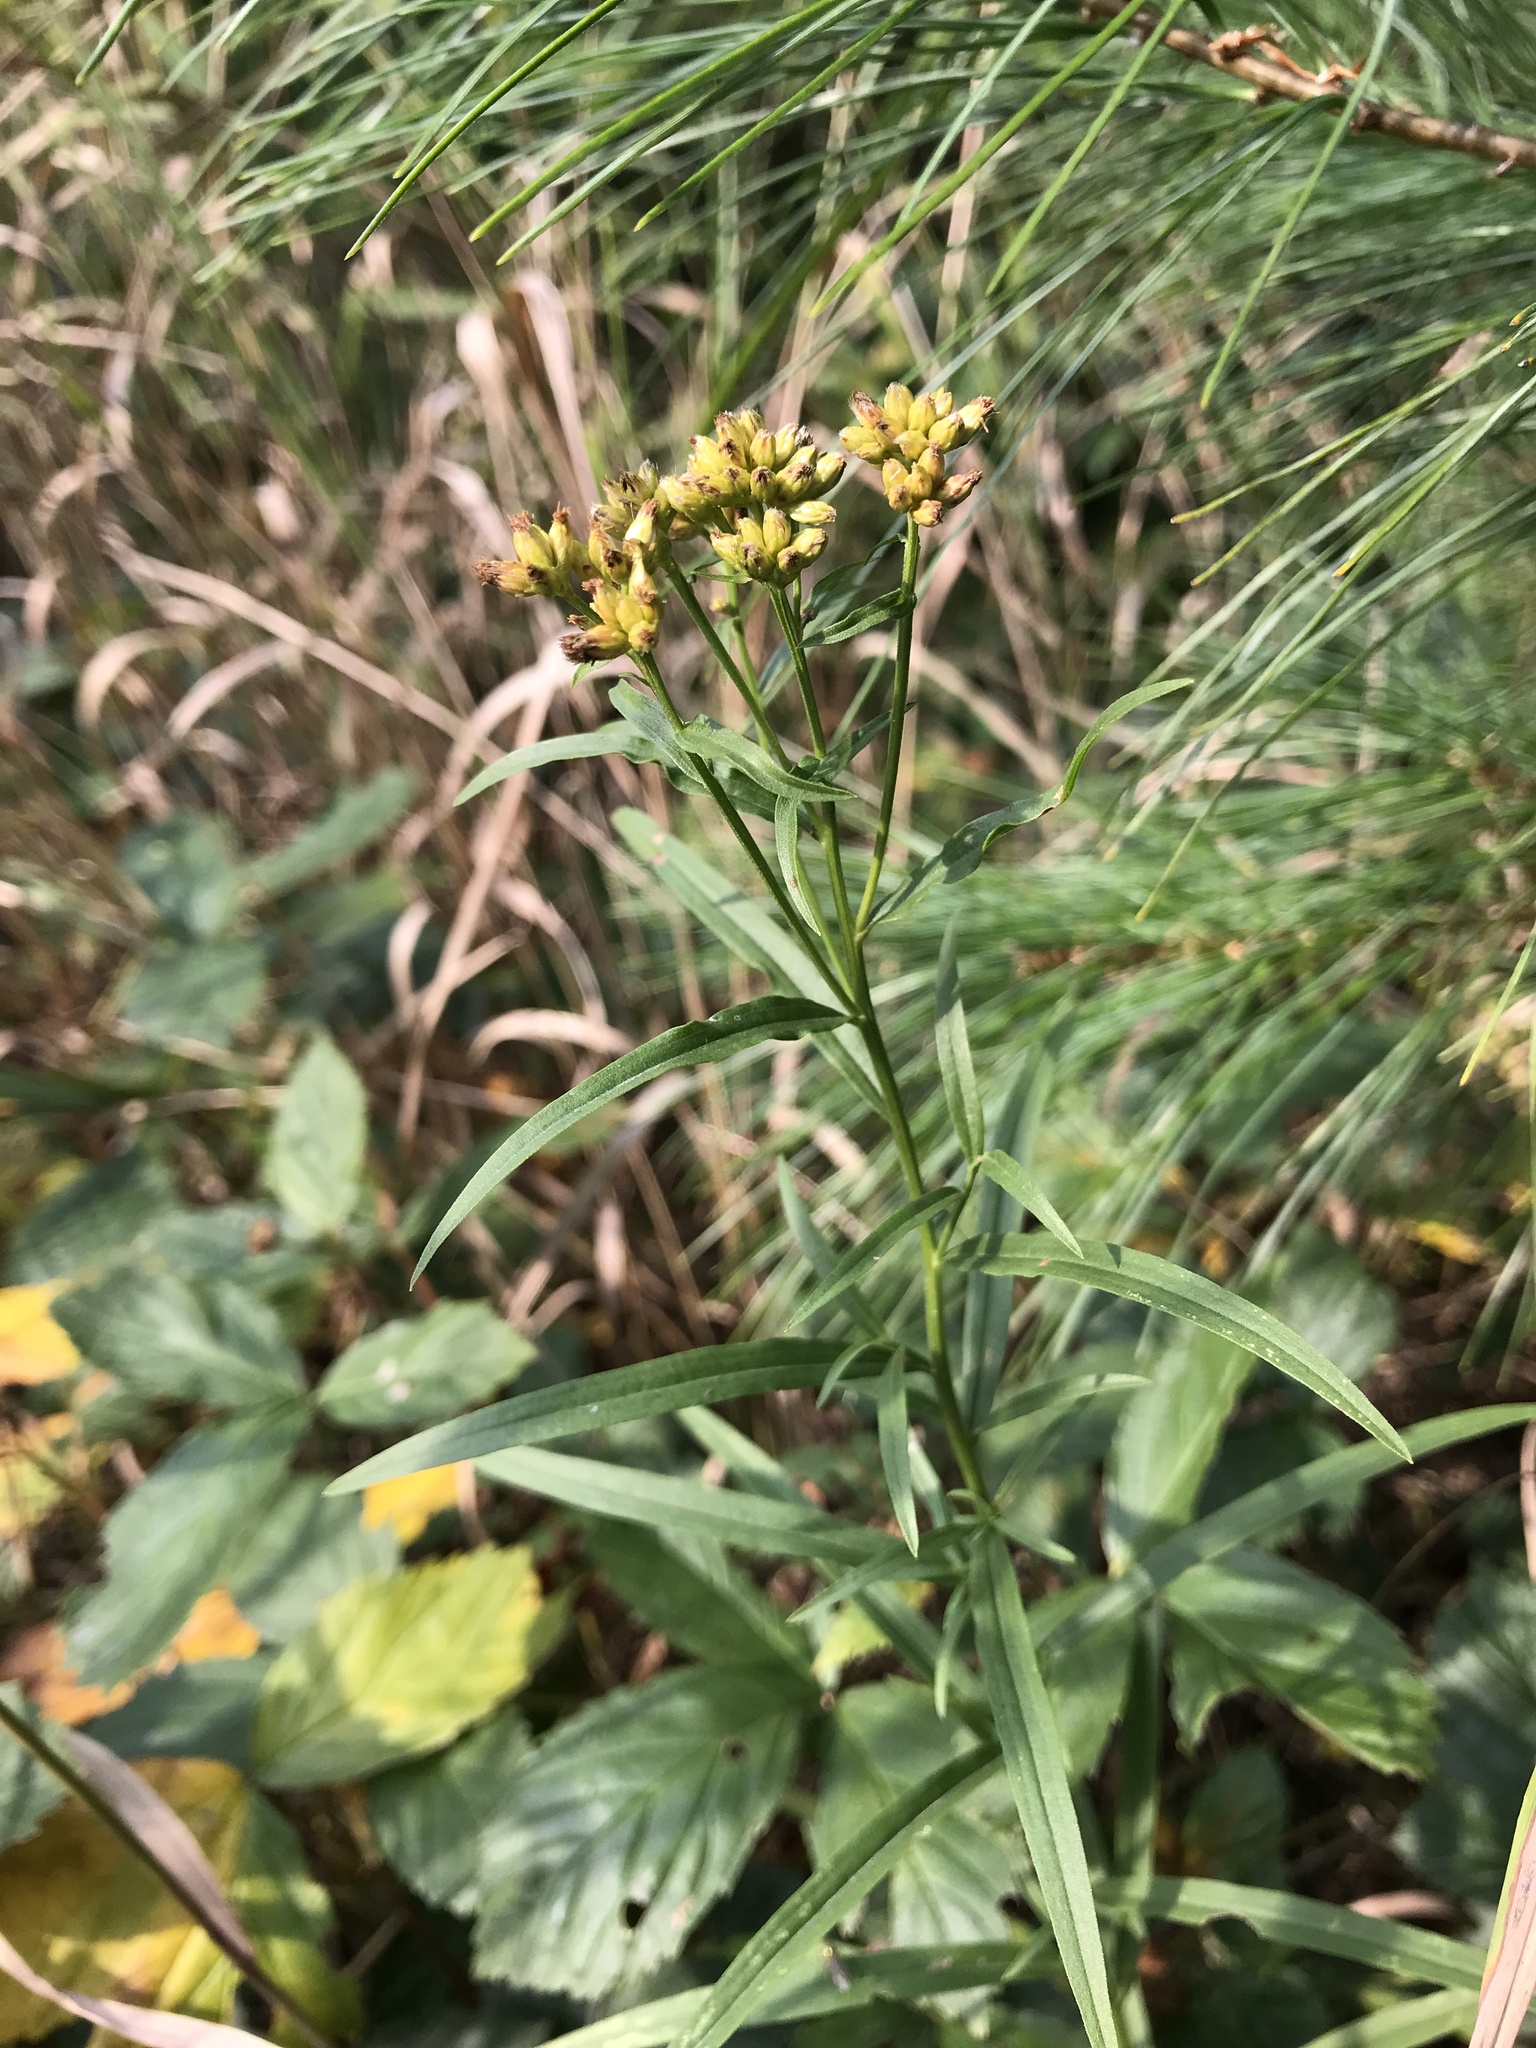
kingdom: Plantae
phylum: Tracheophyta
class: Magnoliopsida
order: Asterales
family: Asteraceae
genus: Euthamia
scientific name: Euthamia graminifolia
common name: Common goldentop
